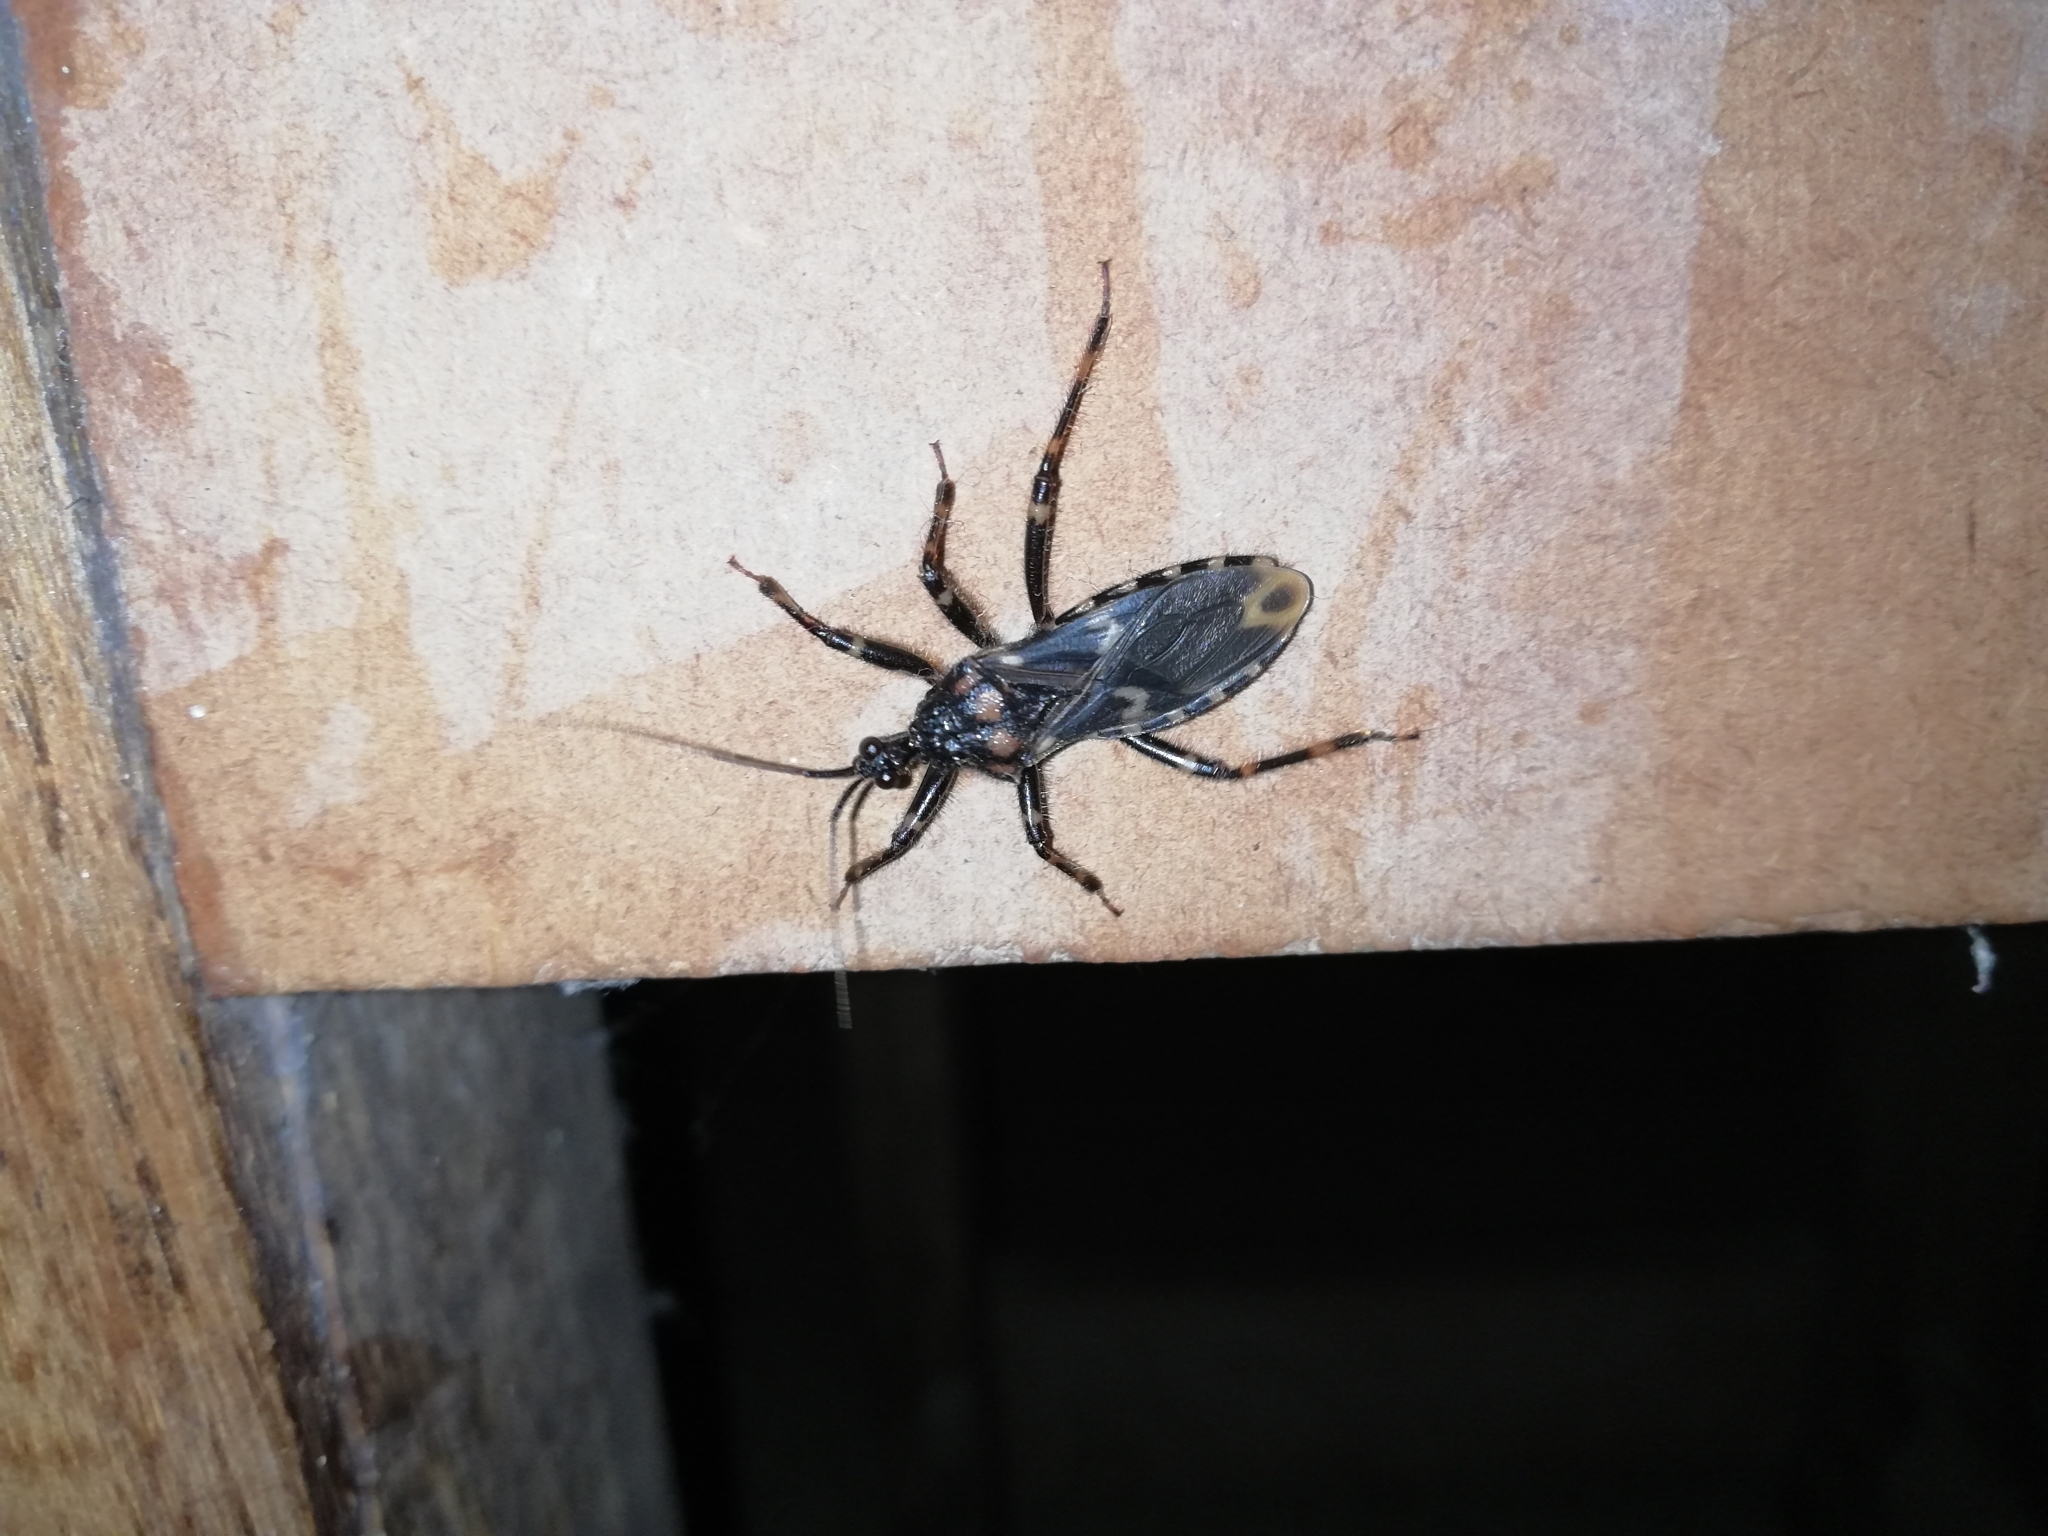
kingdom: Animalia
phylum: Arthropoda
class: Insecta
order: Hemiptera
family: Reduviidae
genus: Acanthaspis
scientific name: Acanthaspis rama
